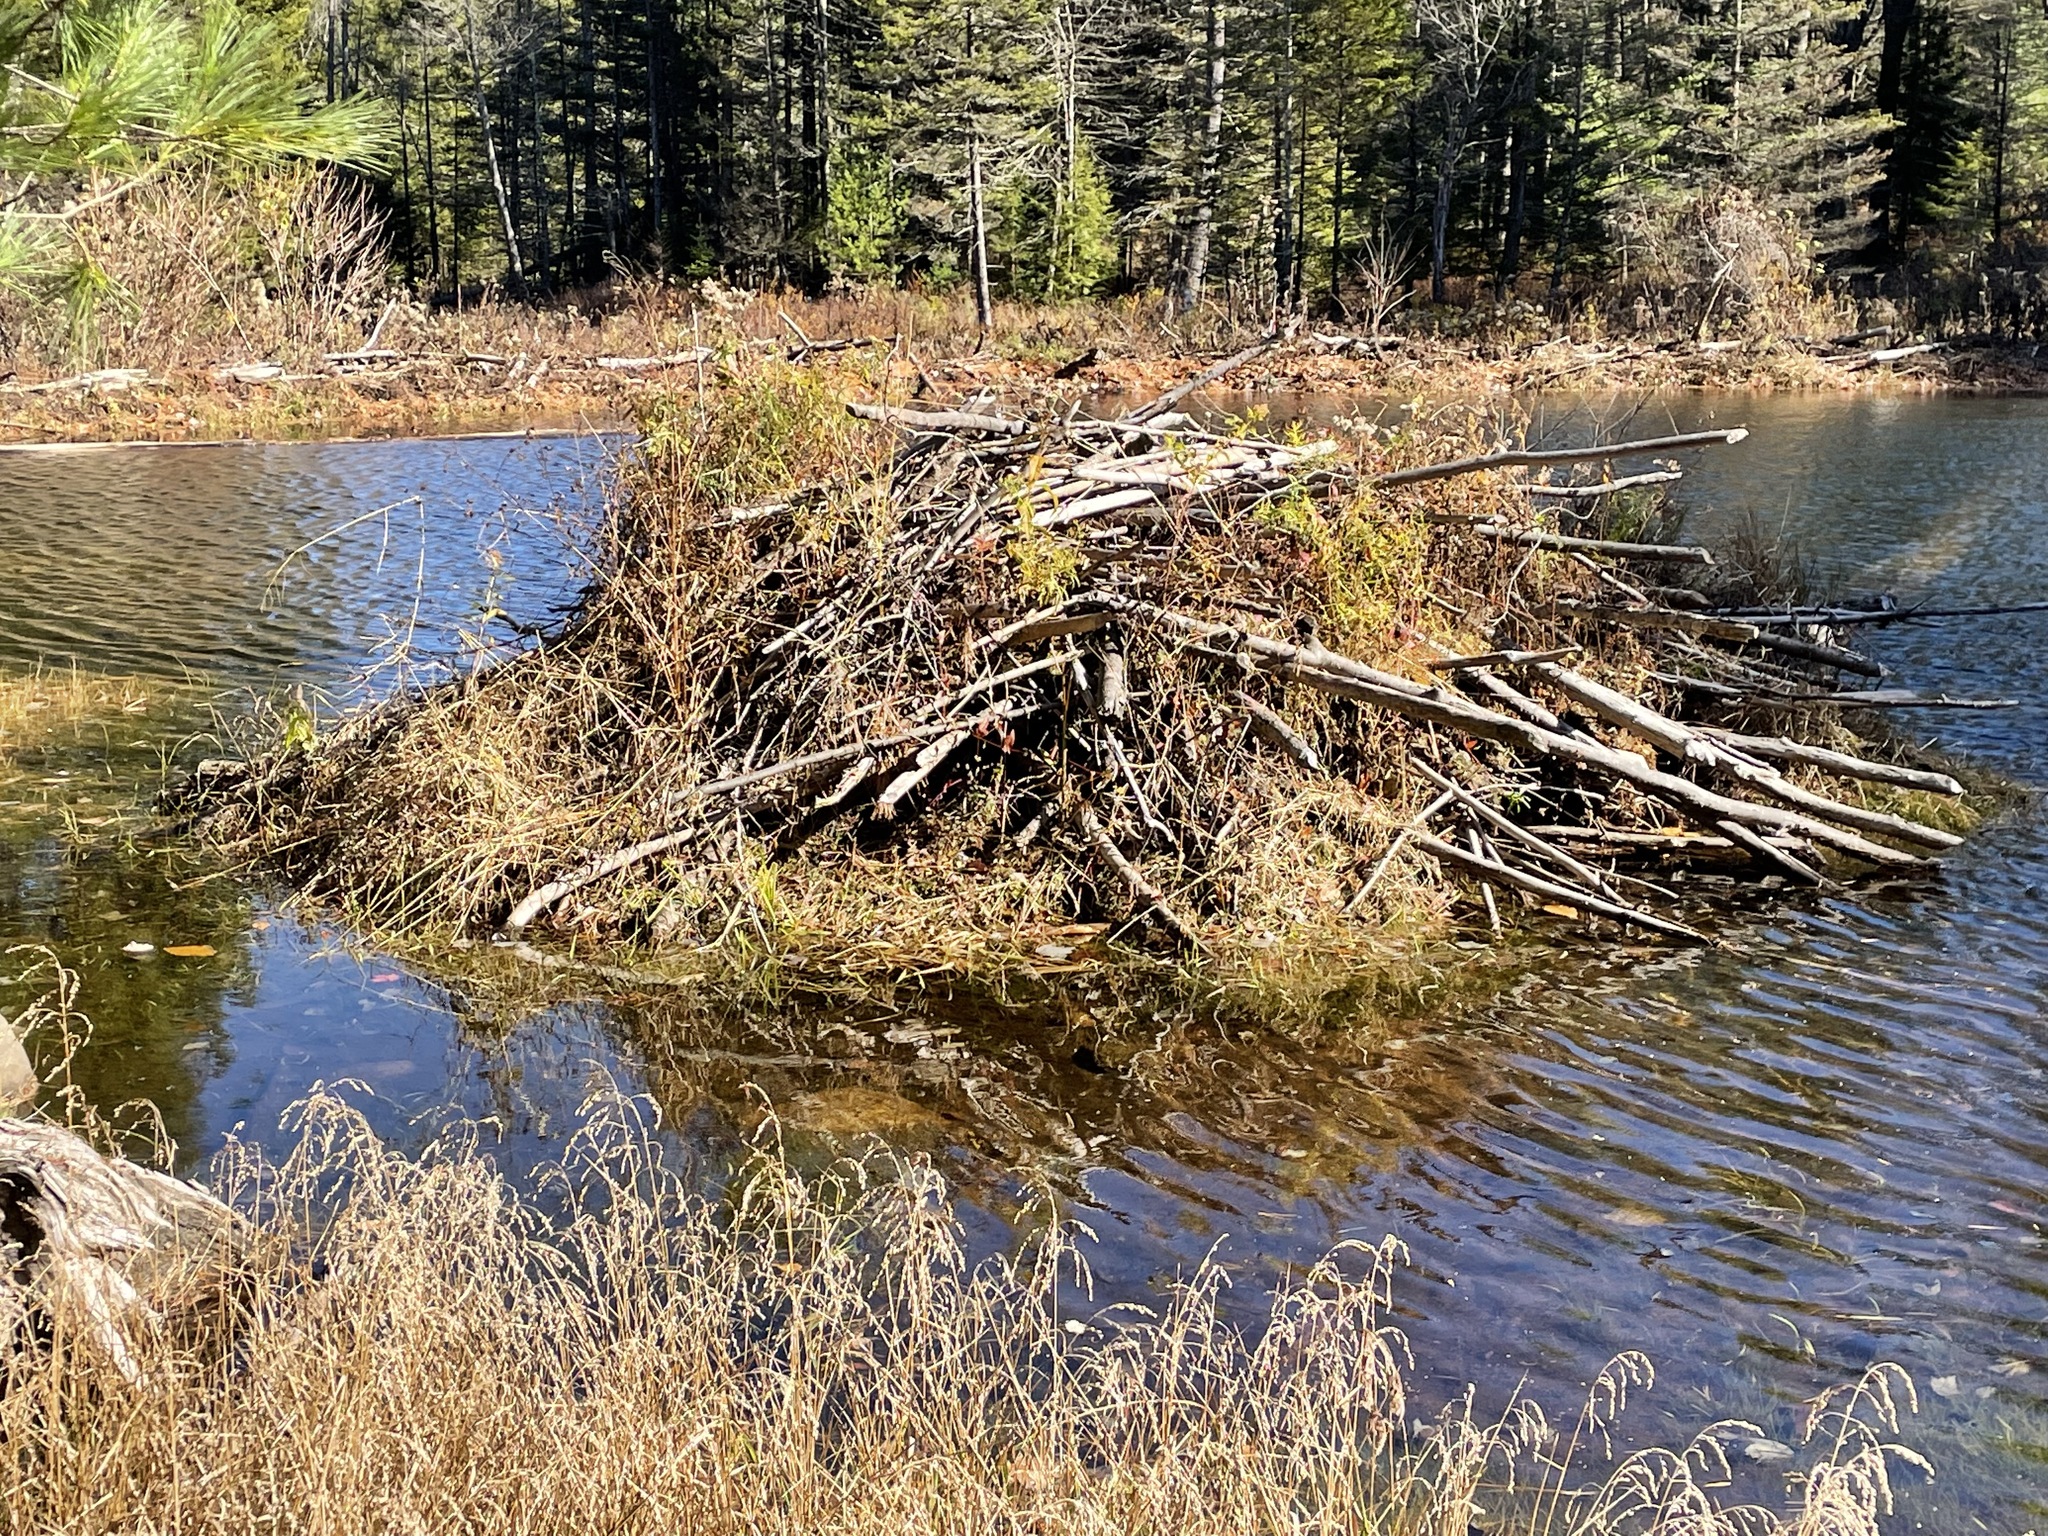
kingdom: Animalia
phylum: Chordata
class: Mammalia
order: Rodentia
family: Castoridae
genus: Castor
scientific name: Castor canadensis
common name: American beaver
